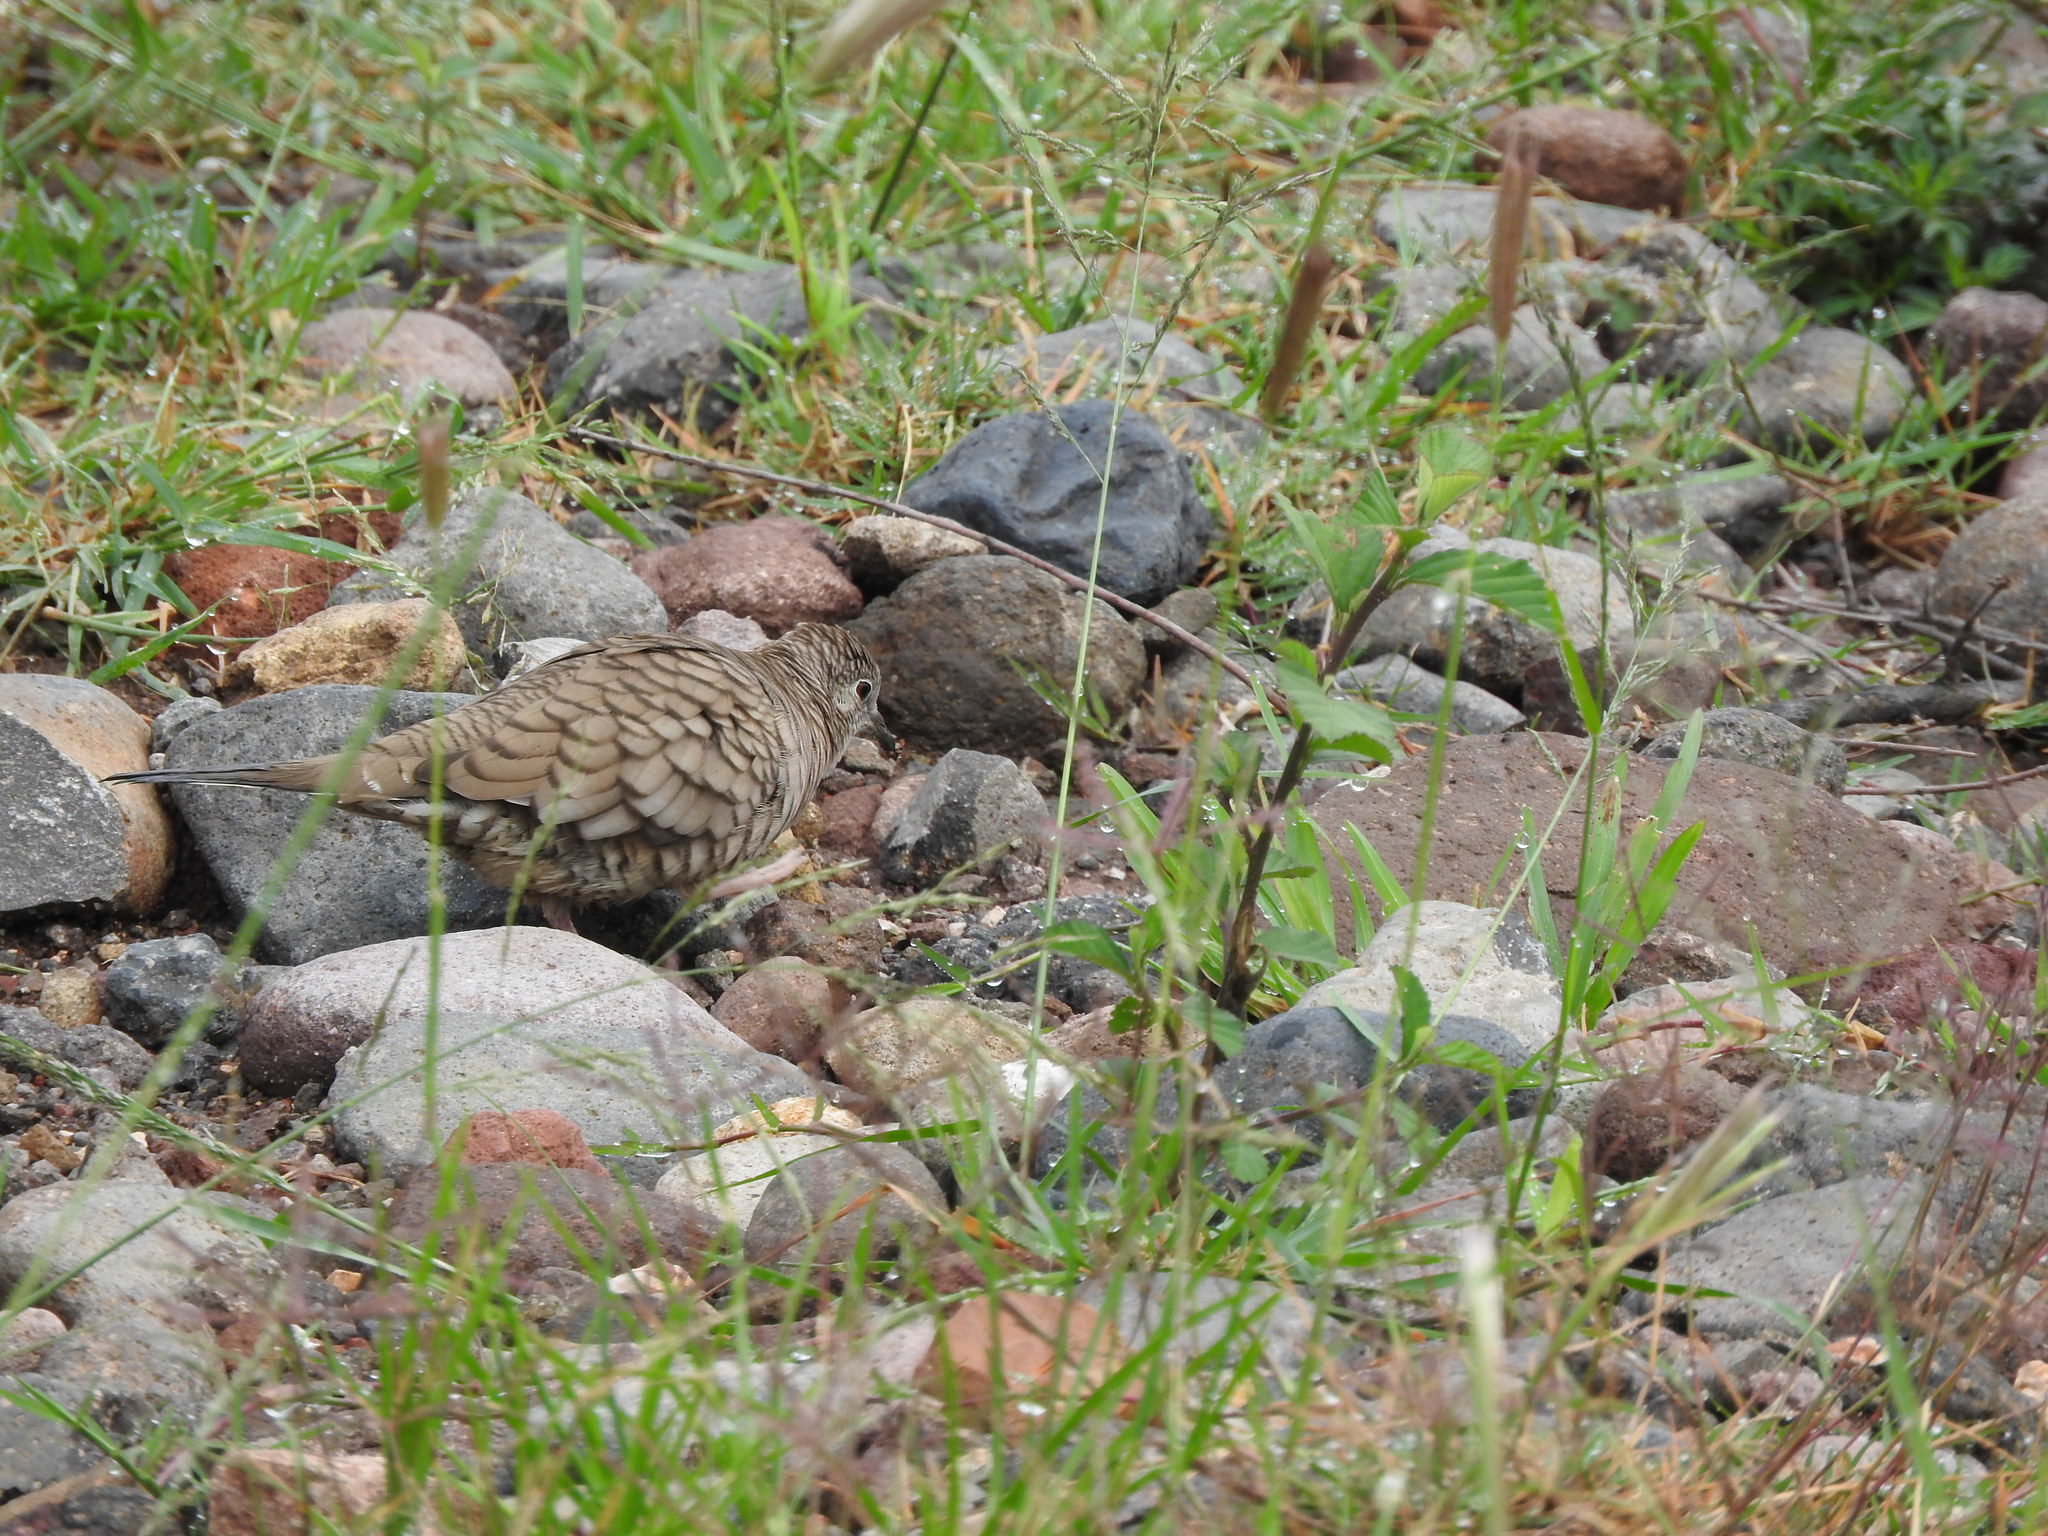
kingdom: Animalia
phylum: Chordata
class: Aves
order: Columbiformes
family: Columbidae
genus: Columbina
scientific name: Columbina inca
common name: Inca dove
